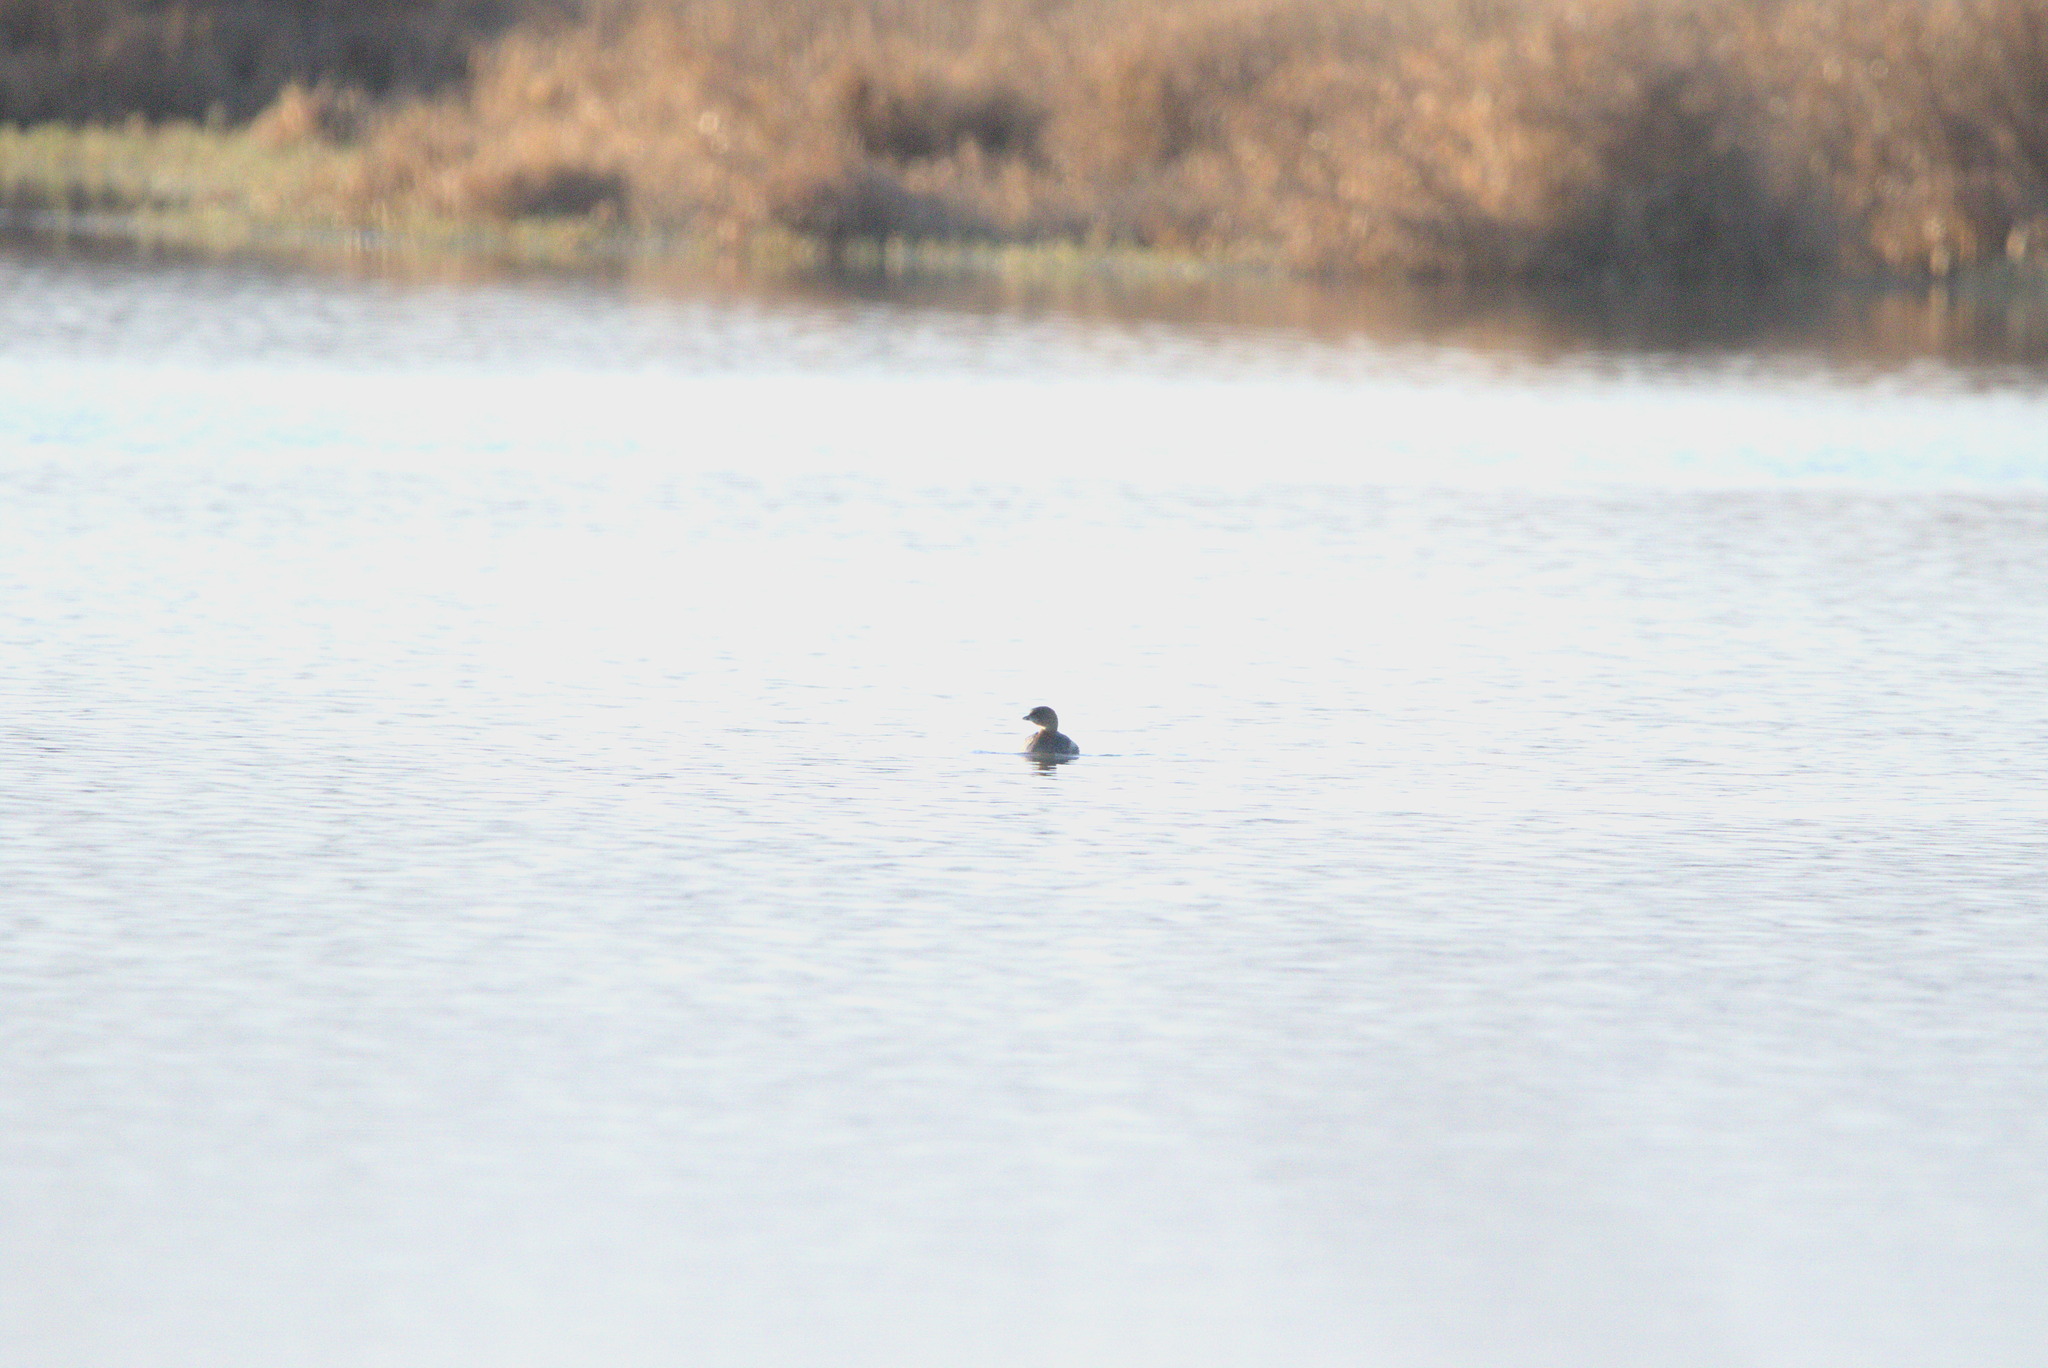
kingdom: Animalia
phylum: Chordata
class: Aves
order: Podicipediformes
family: Podicipedidae
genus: Podilymbus
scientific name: Podilymbus podiceps
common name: Pied-billed grebe
